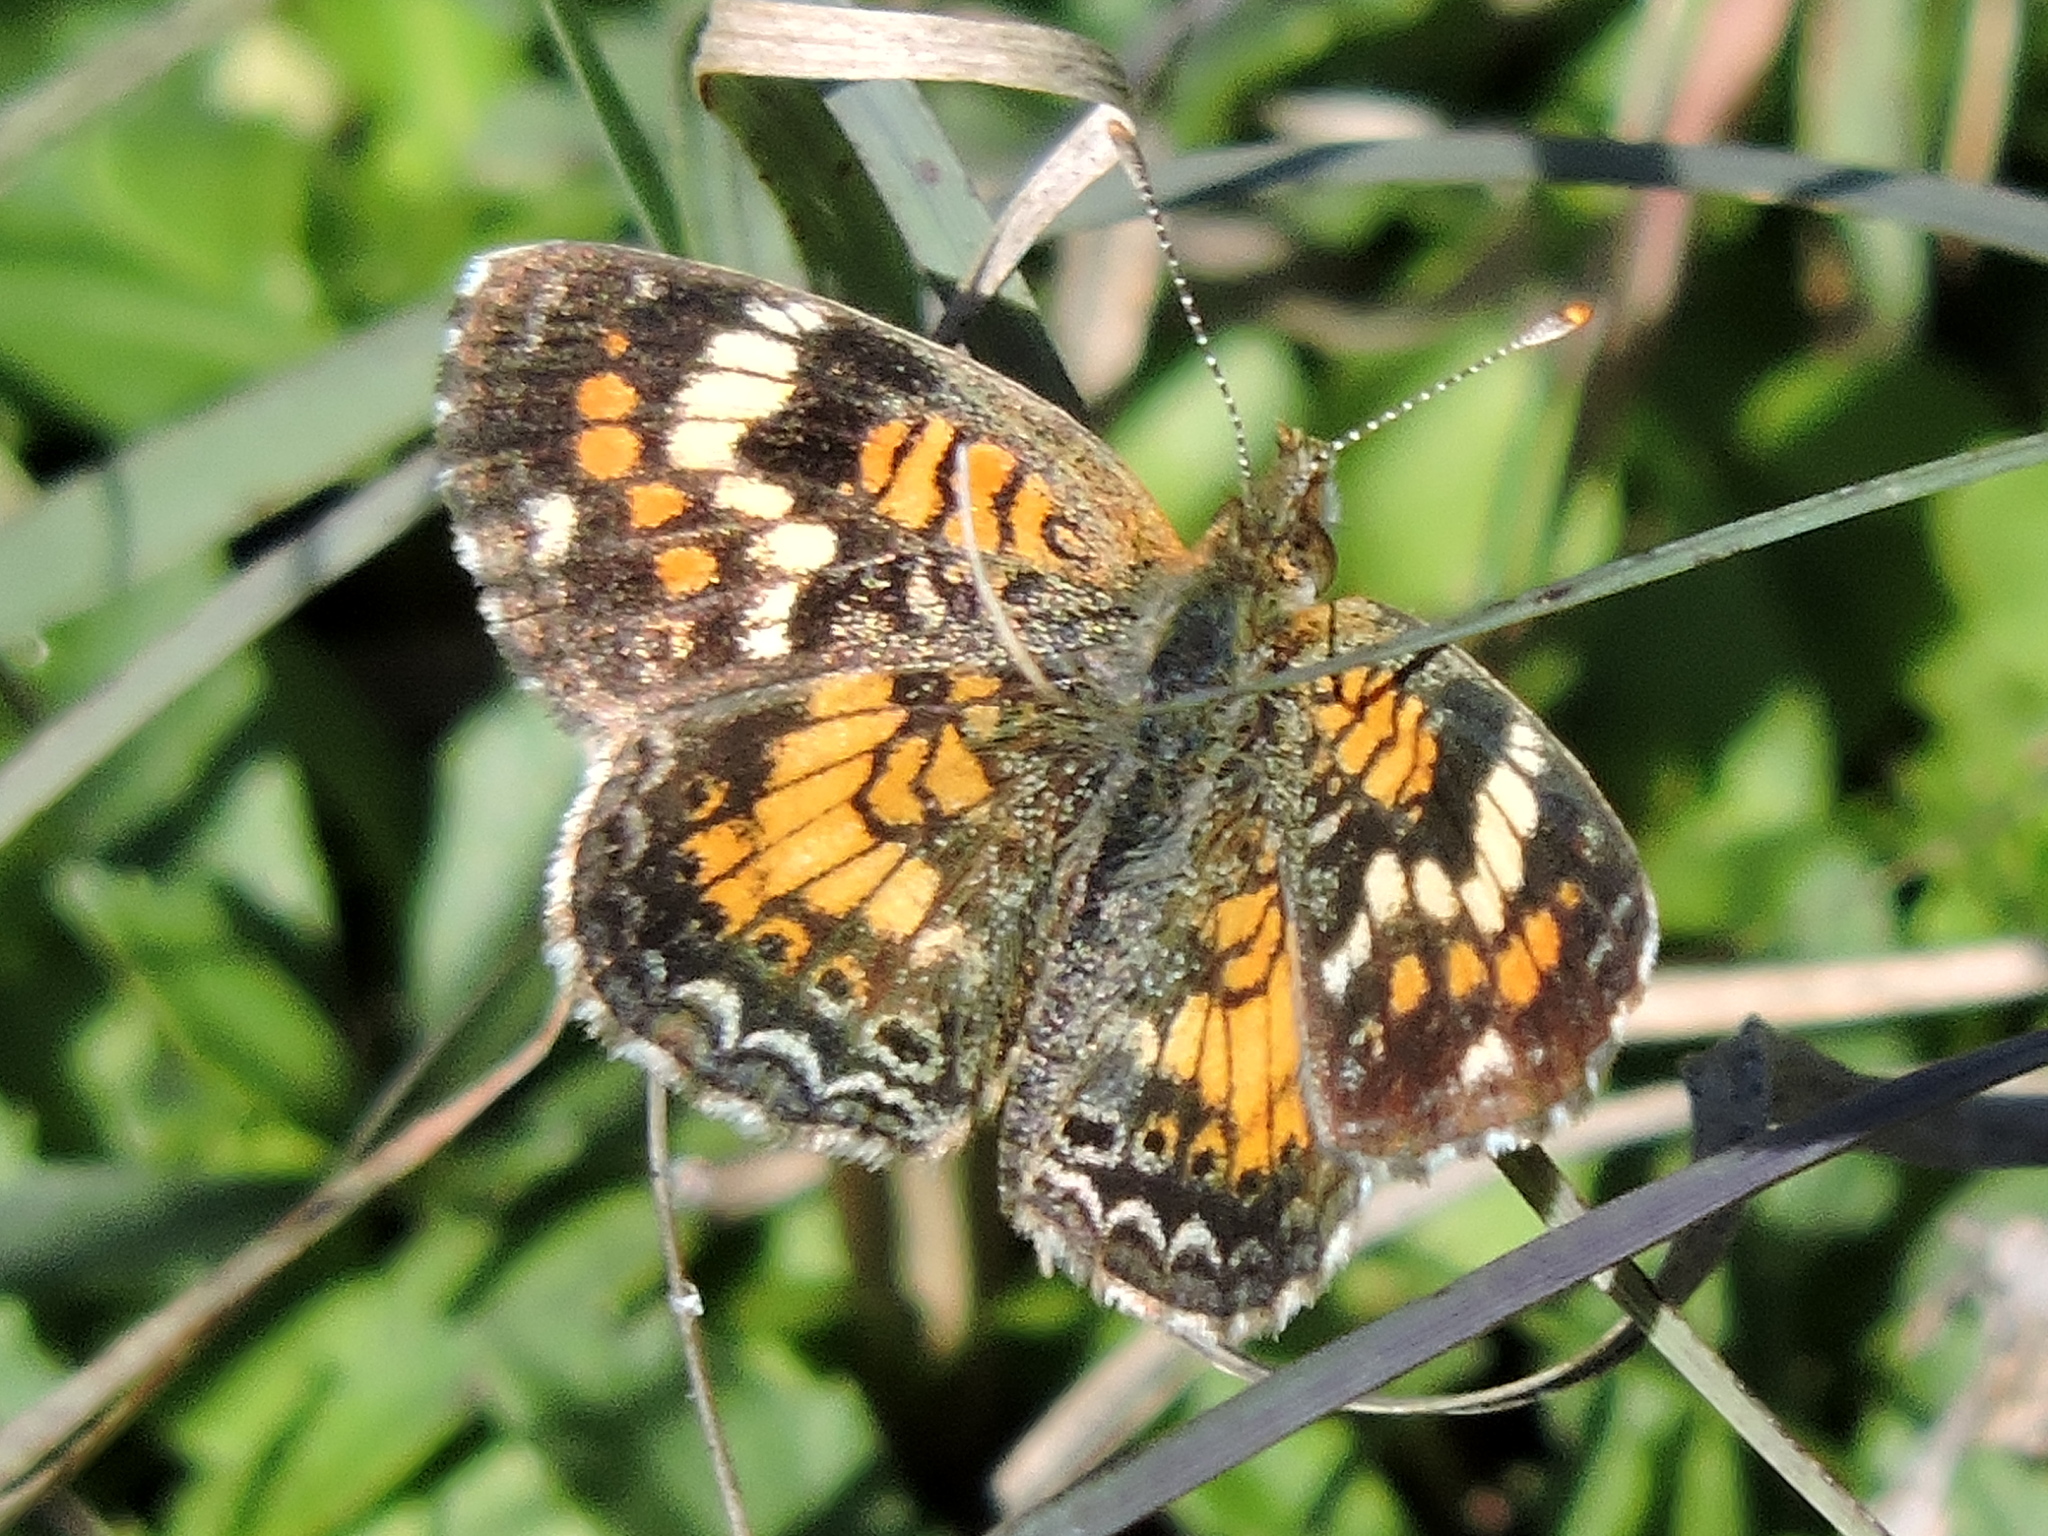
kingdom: Animalia
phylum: Arthropoda
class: Insecta
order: Lepidoptera
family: Nymphalidae
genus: Phyciodes
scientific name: Phyciodes phaon
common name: Phaon crescent
